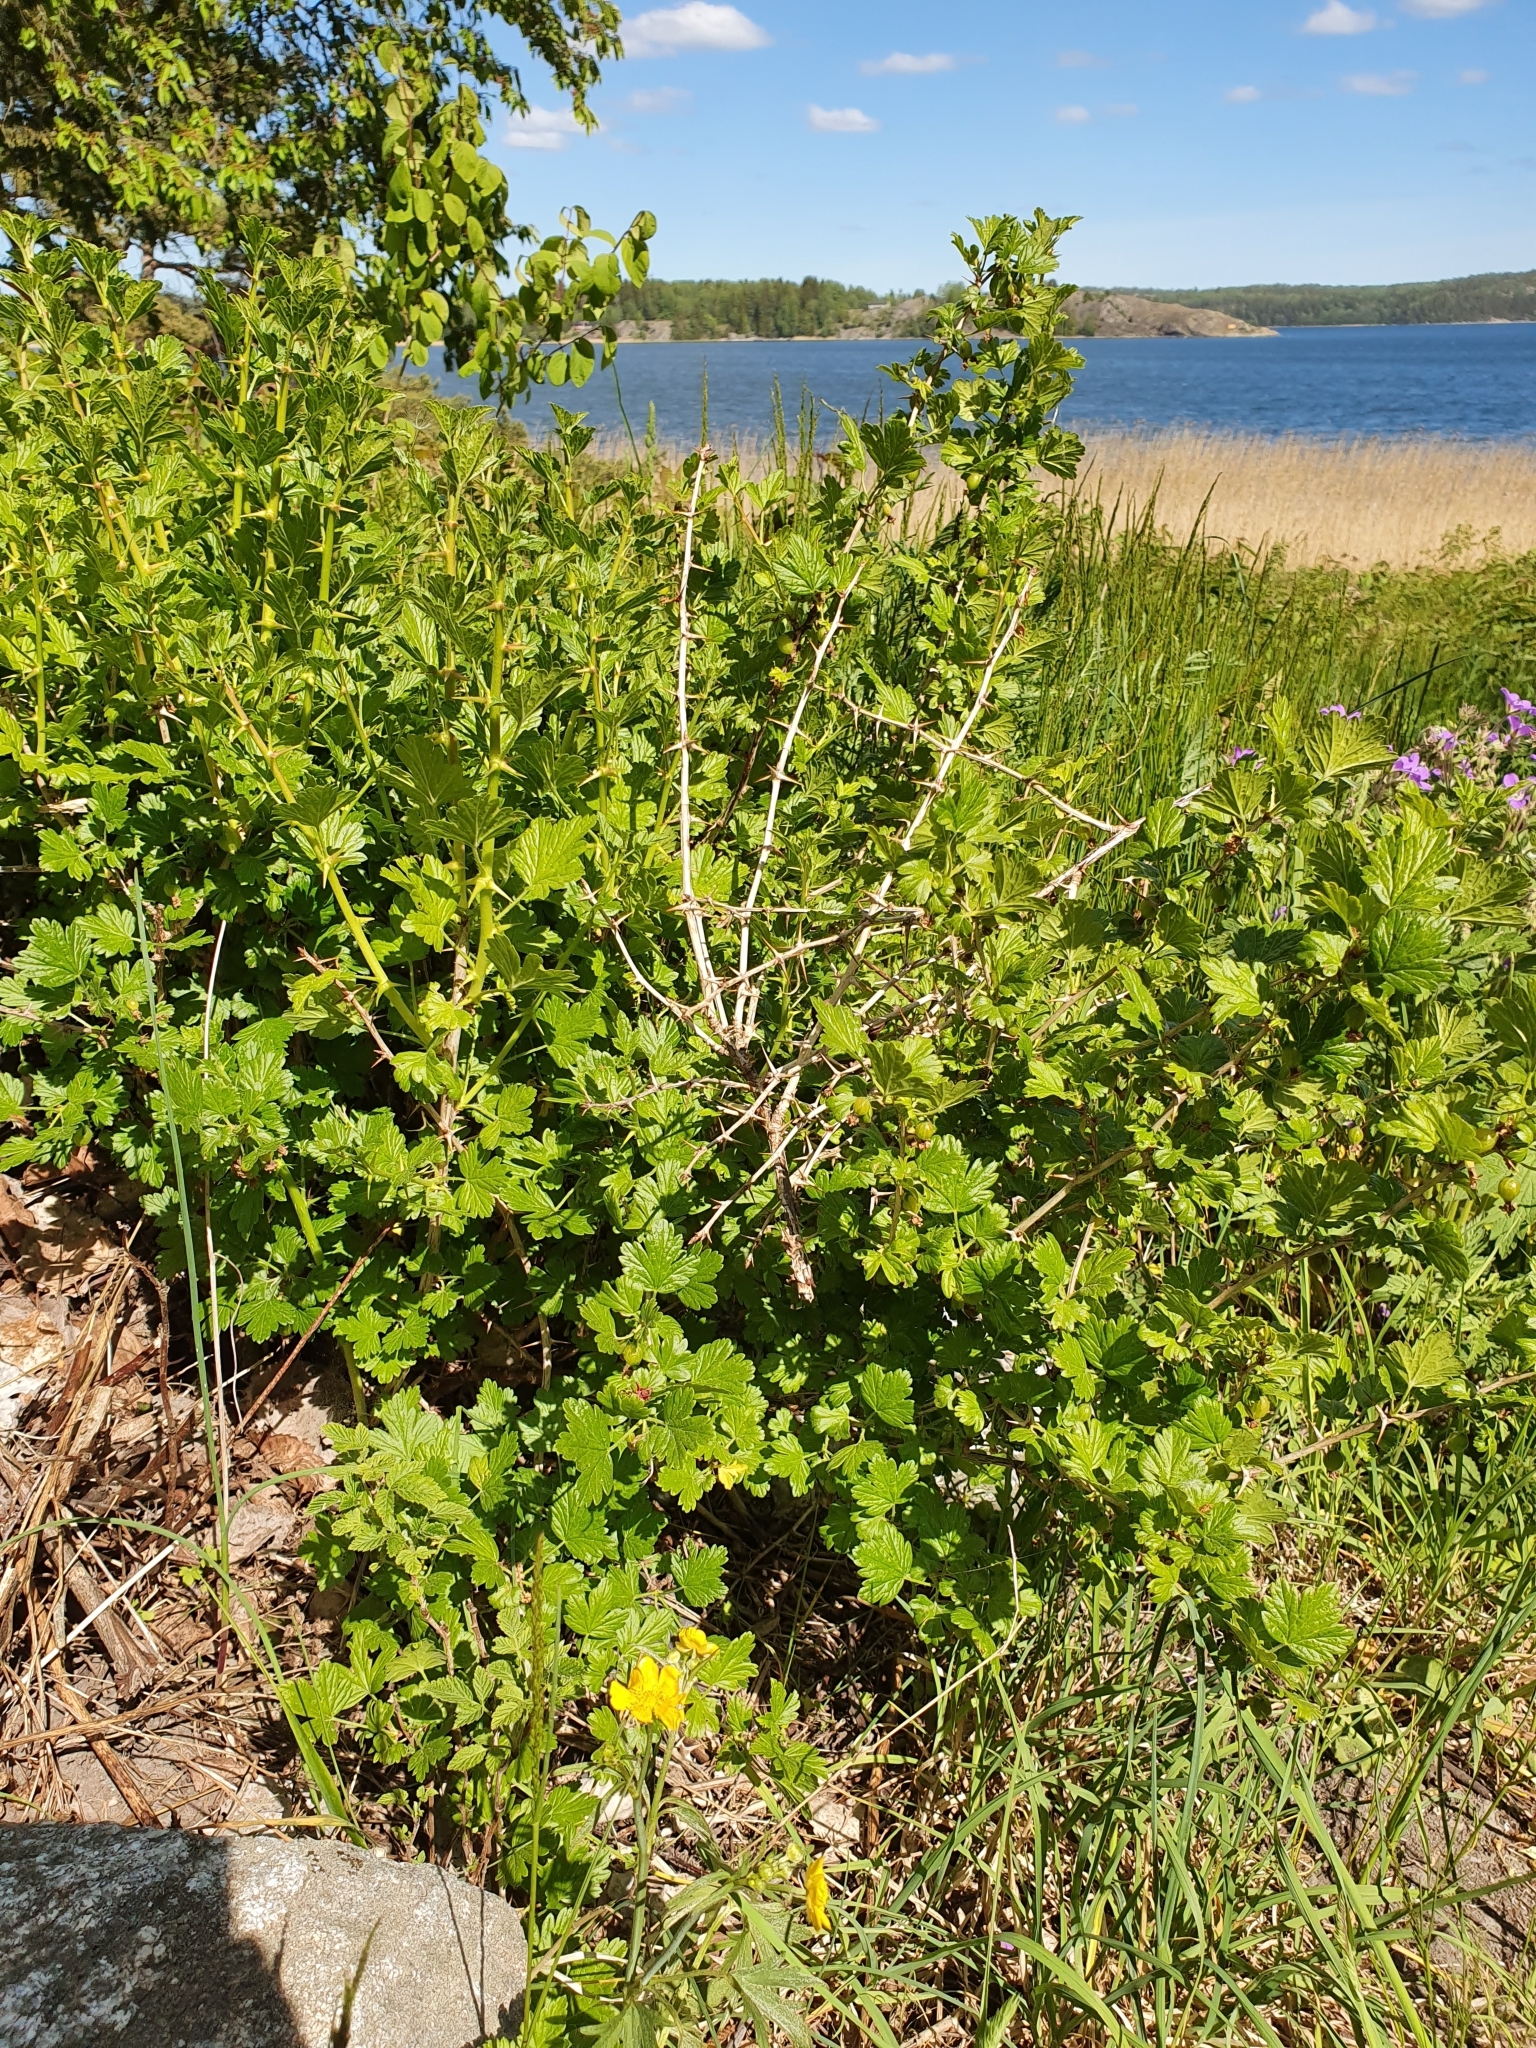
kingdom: Plantae
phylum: Tracheophyta
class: Magnoliopsida
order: Saxifragales
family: Grossulariaceae
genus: Ribes
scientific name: Ribes uva-crispa
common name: Gooseberry
